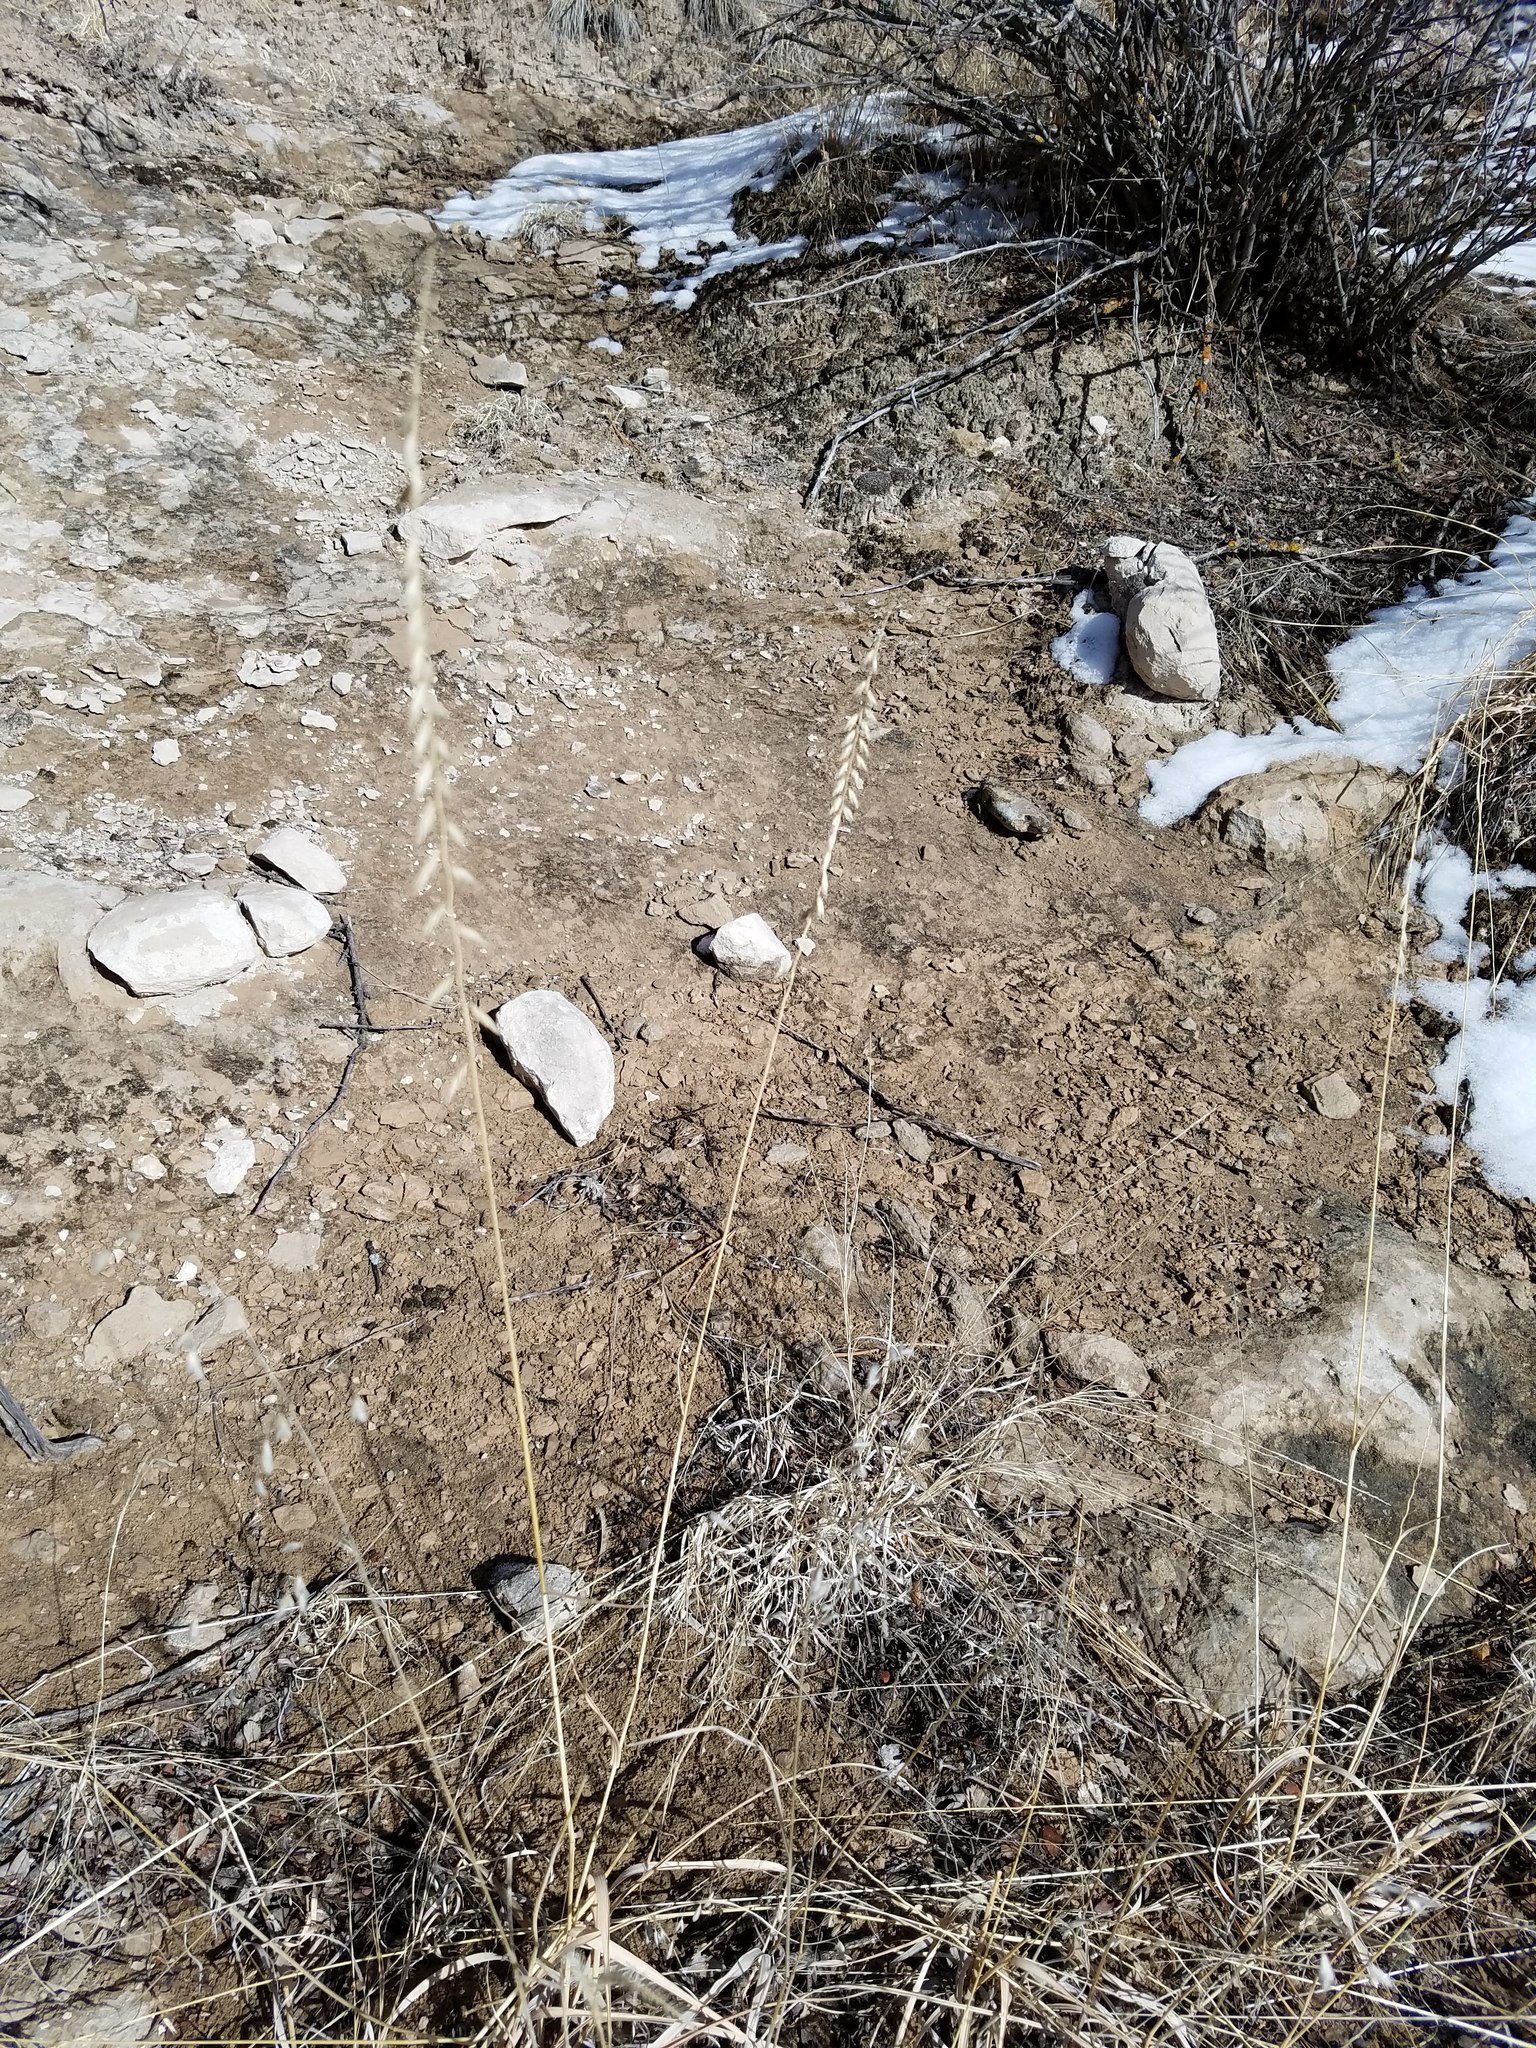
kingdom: Plantae
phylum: Tracheophyta
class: Liliopsida
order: Poales
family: Poaceae
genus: Bouteloua
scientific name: Bouteloua curtipendula
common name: Side-oats grama
